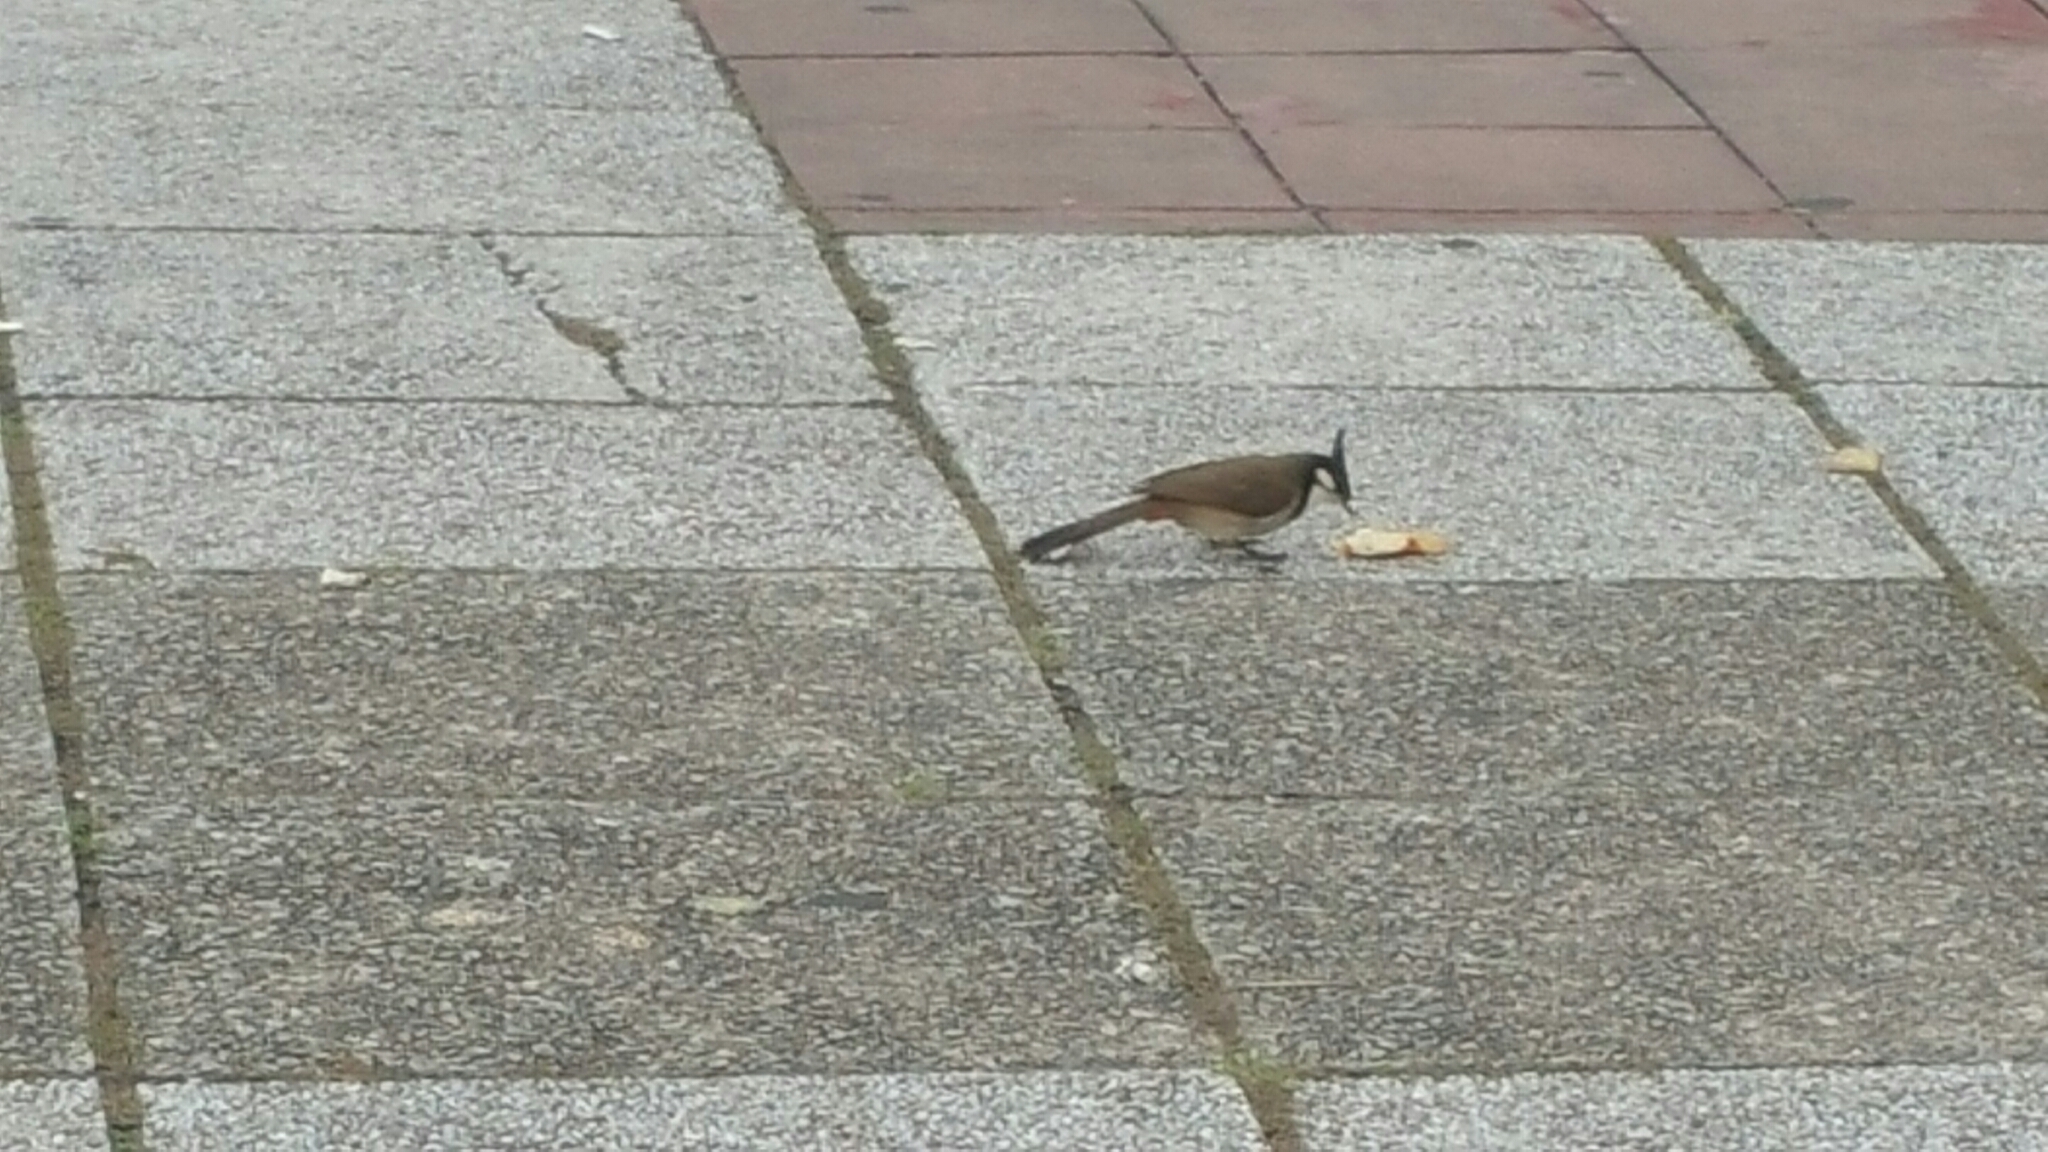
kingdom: Animalia
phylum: Chordata
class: Aves
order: Passeriformes
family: Pycnonotidae
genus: Pycnonotus
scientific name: Pycnonotus jocosus
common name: Red-whiskered bulbul
